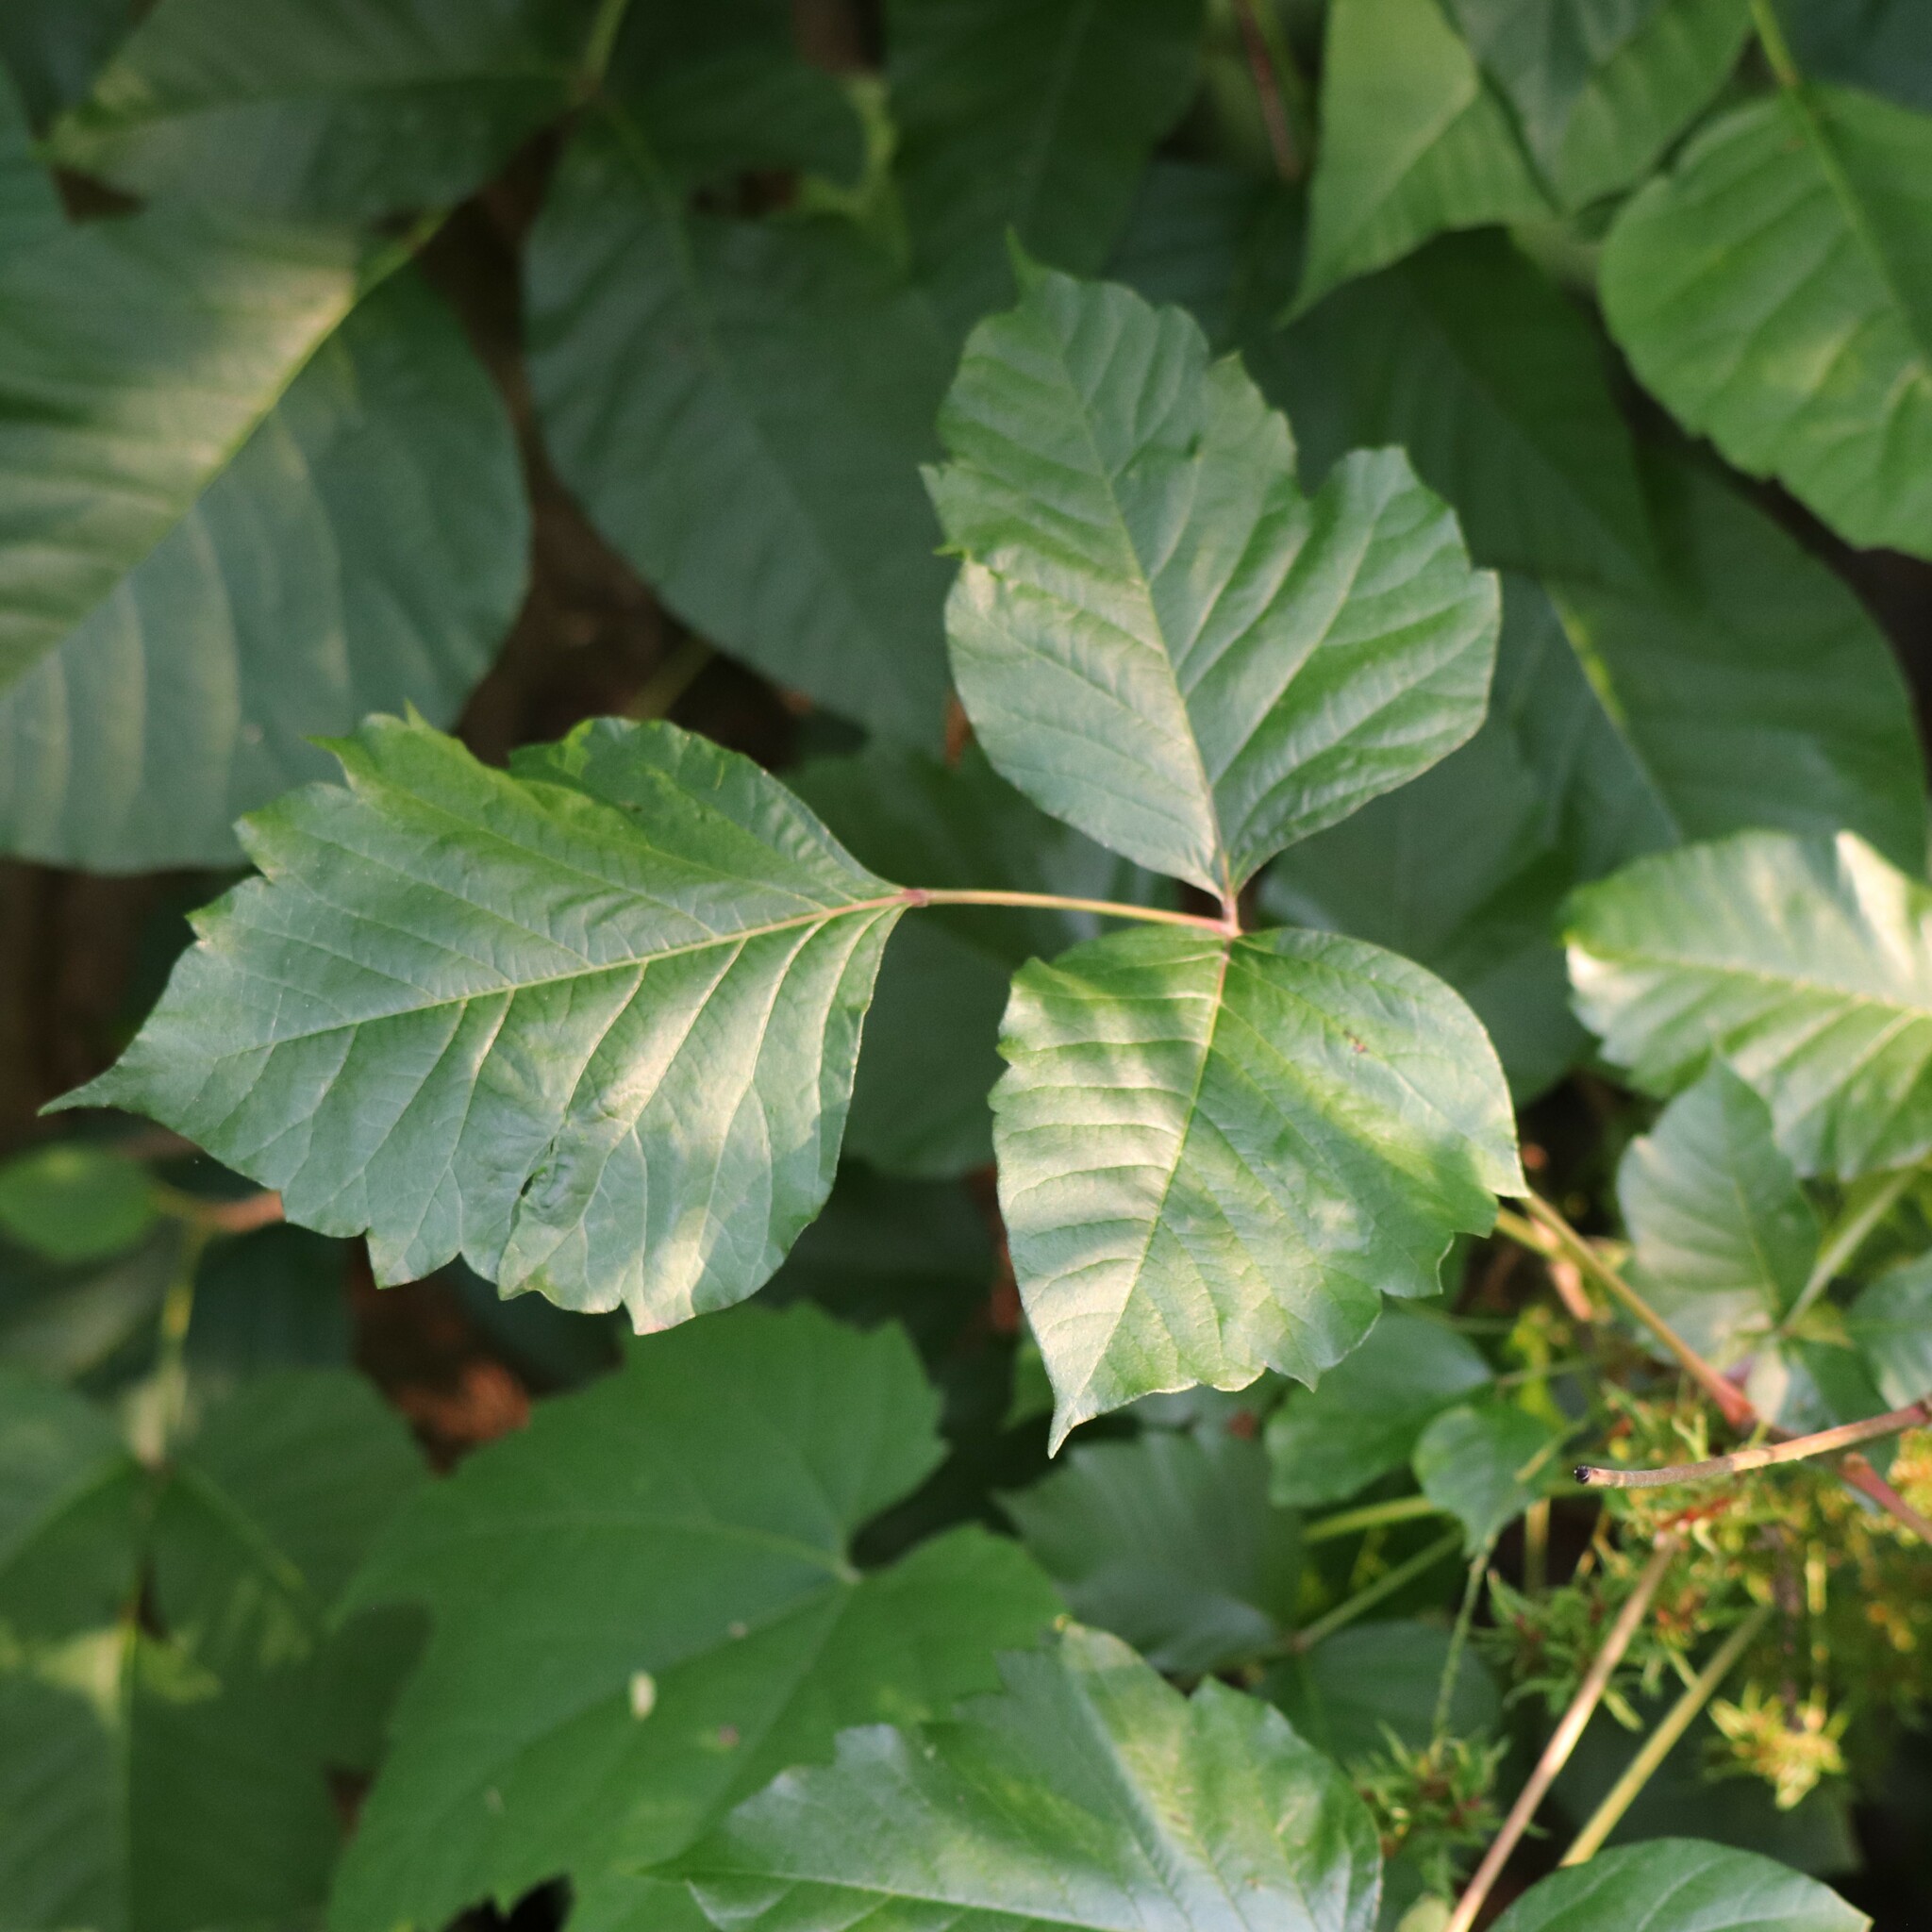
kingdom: Plantae
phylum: Tracheophyta
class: Magnoliopsida
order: Sapindales
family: Anacardiaceae
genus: Toxicodendron
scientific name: Toxicodendron radicans
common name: Poison ivy
